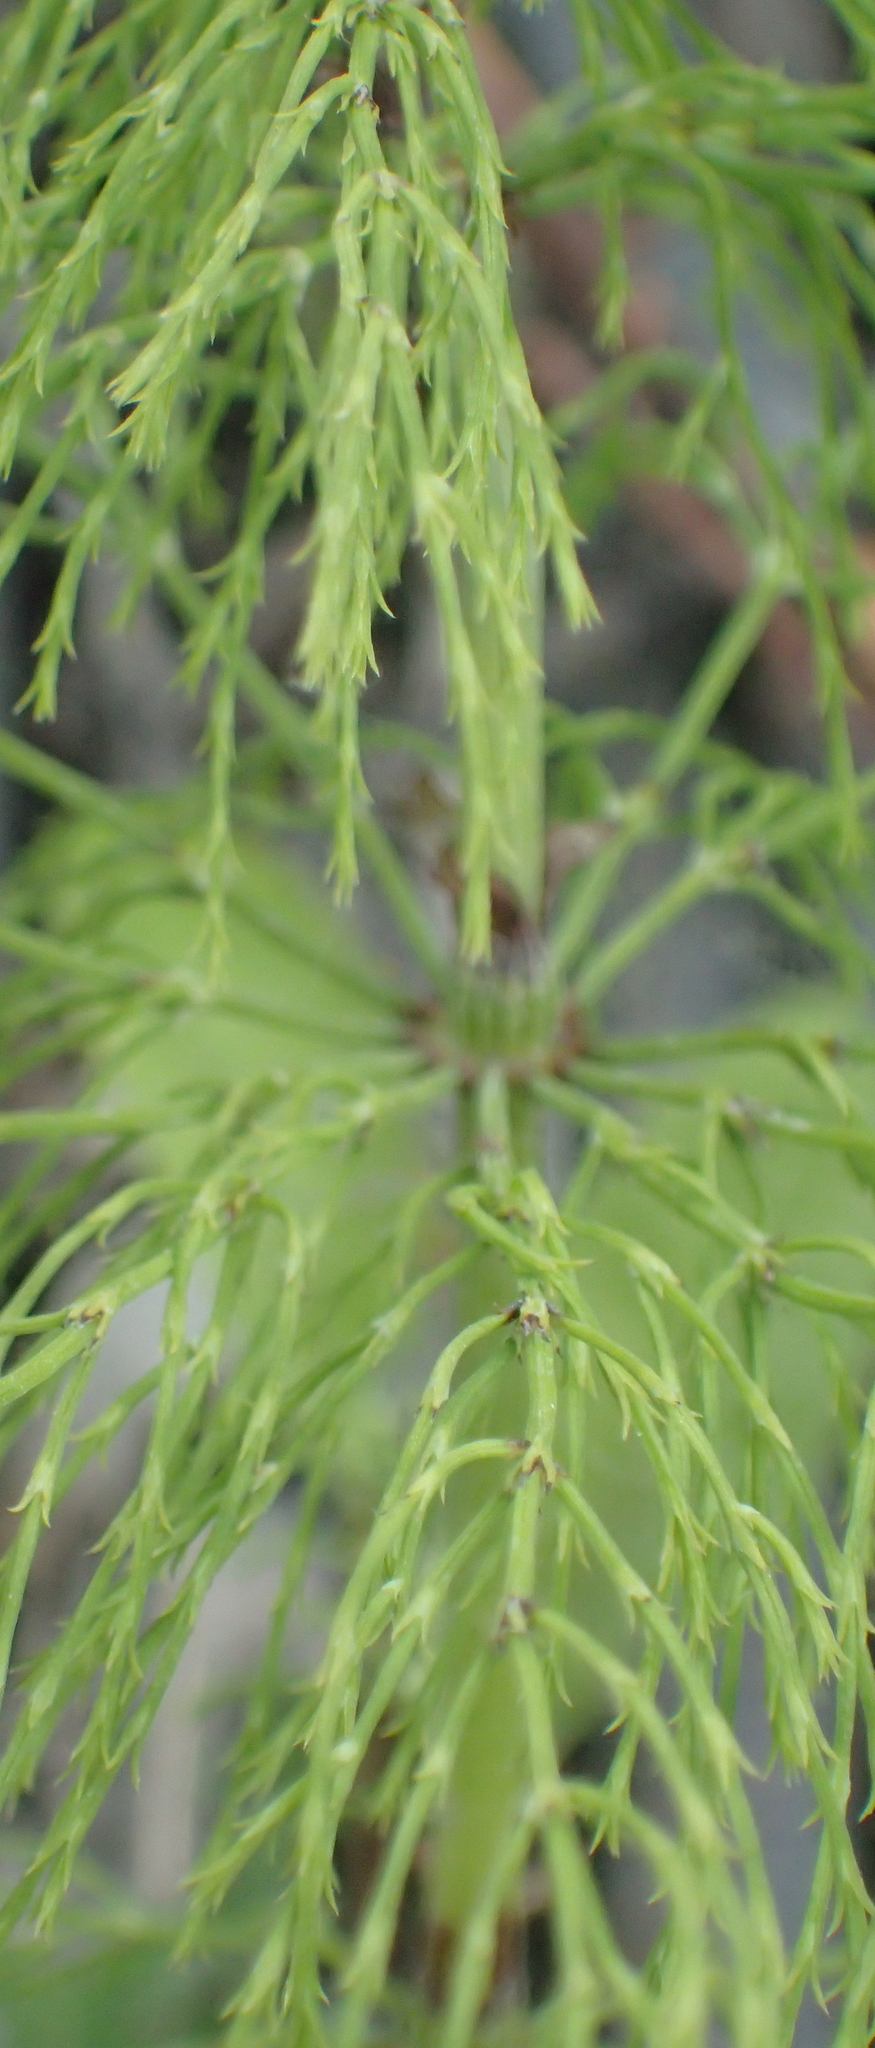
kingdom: Plantae
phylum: Tracheophyta
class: Polypodiopsida
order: Equisetales
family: Equisetaceae
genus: Equisetum
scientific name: Equisetum sylvaticum
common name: Wood horsetail
